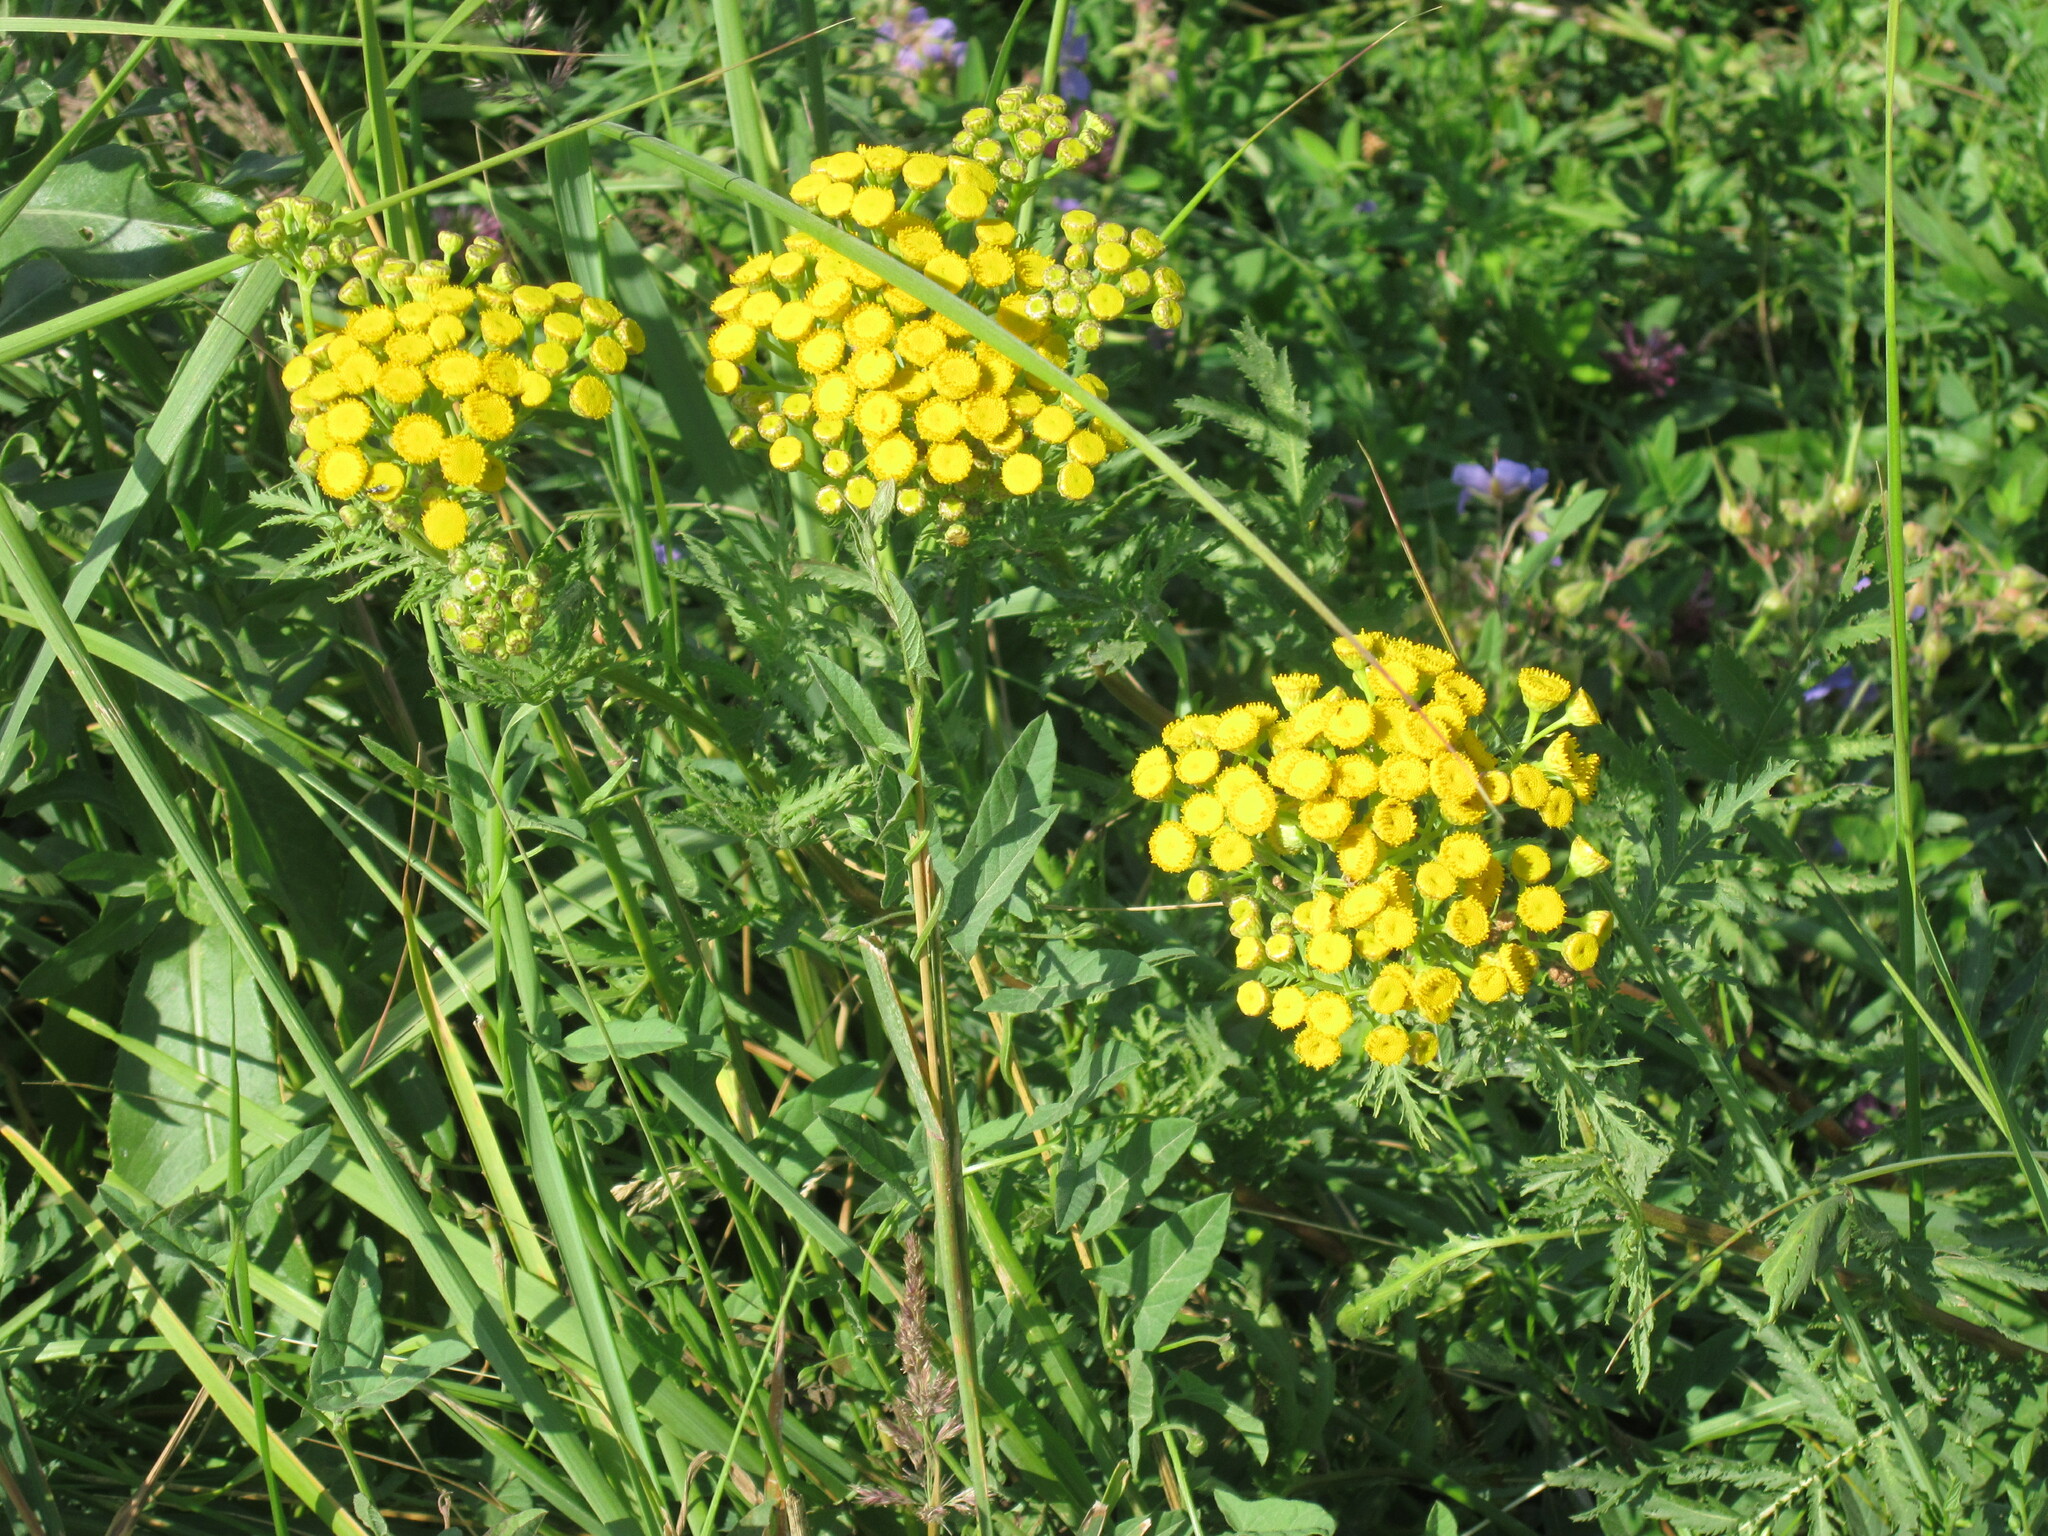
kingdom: Plantae
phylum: Tracheophyta
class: Magnoliopsida
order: Asterales
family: Asteraceae
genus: Tanacetum
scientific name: Tanacetum vulgare
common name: Common tansy
